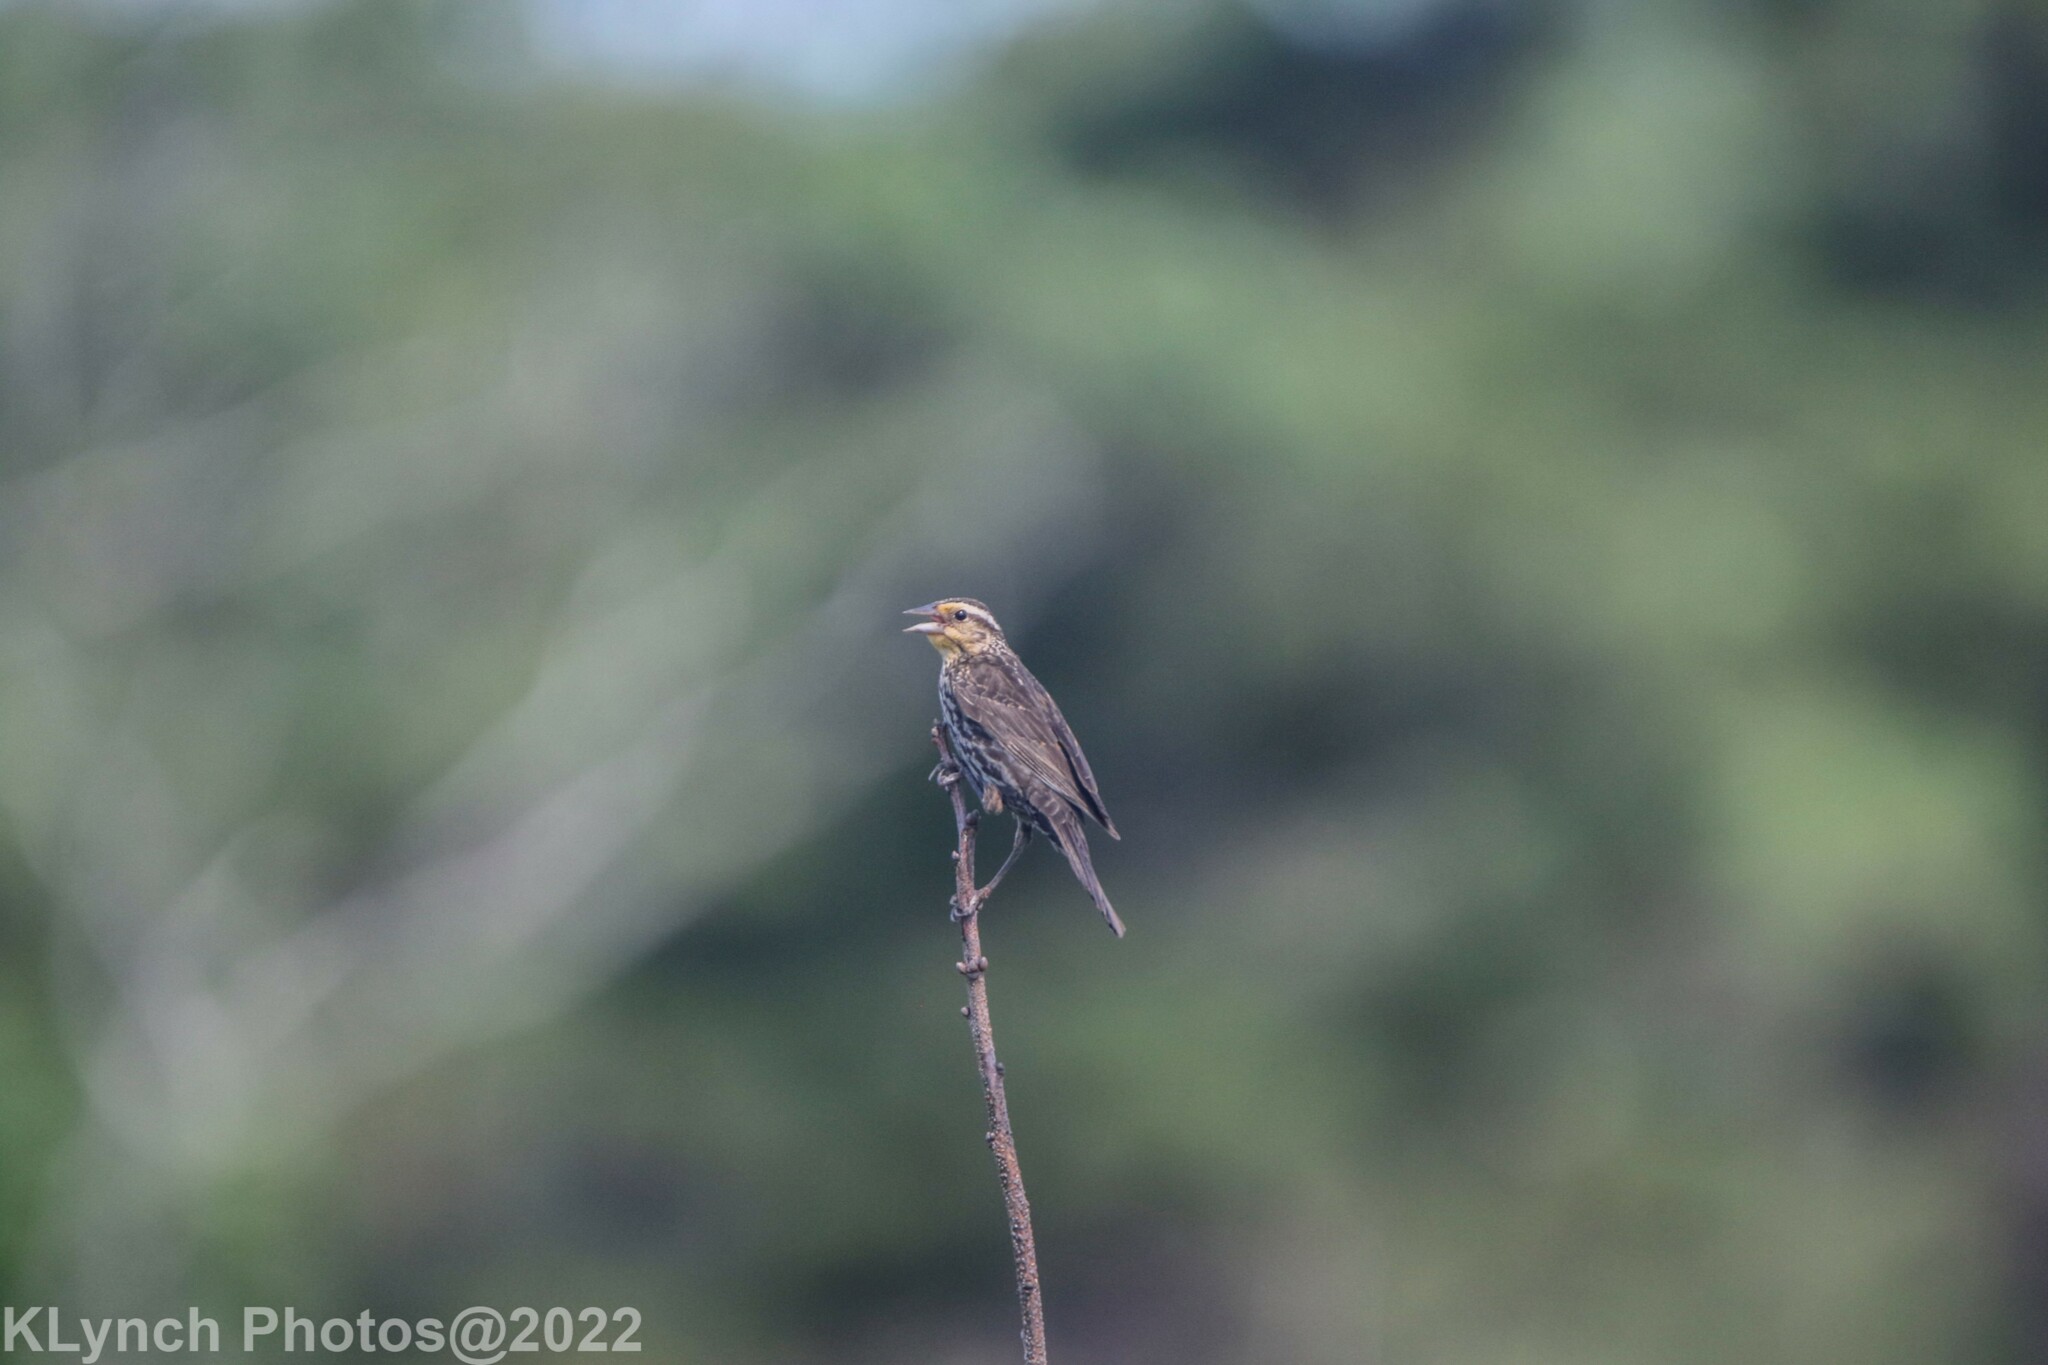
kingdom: Animalia
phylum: Chordata
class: Aves
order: Passeriformes
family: Icteridae
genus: Agelaius
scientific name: Agelaius phoeniceus
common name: Red-winged blackbird
